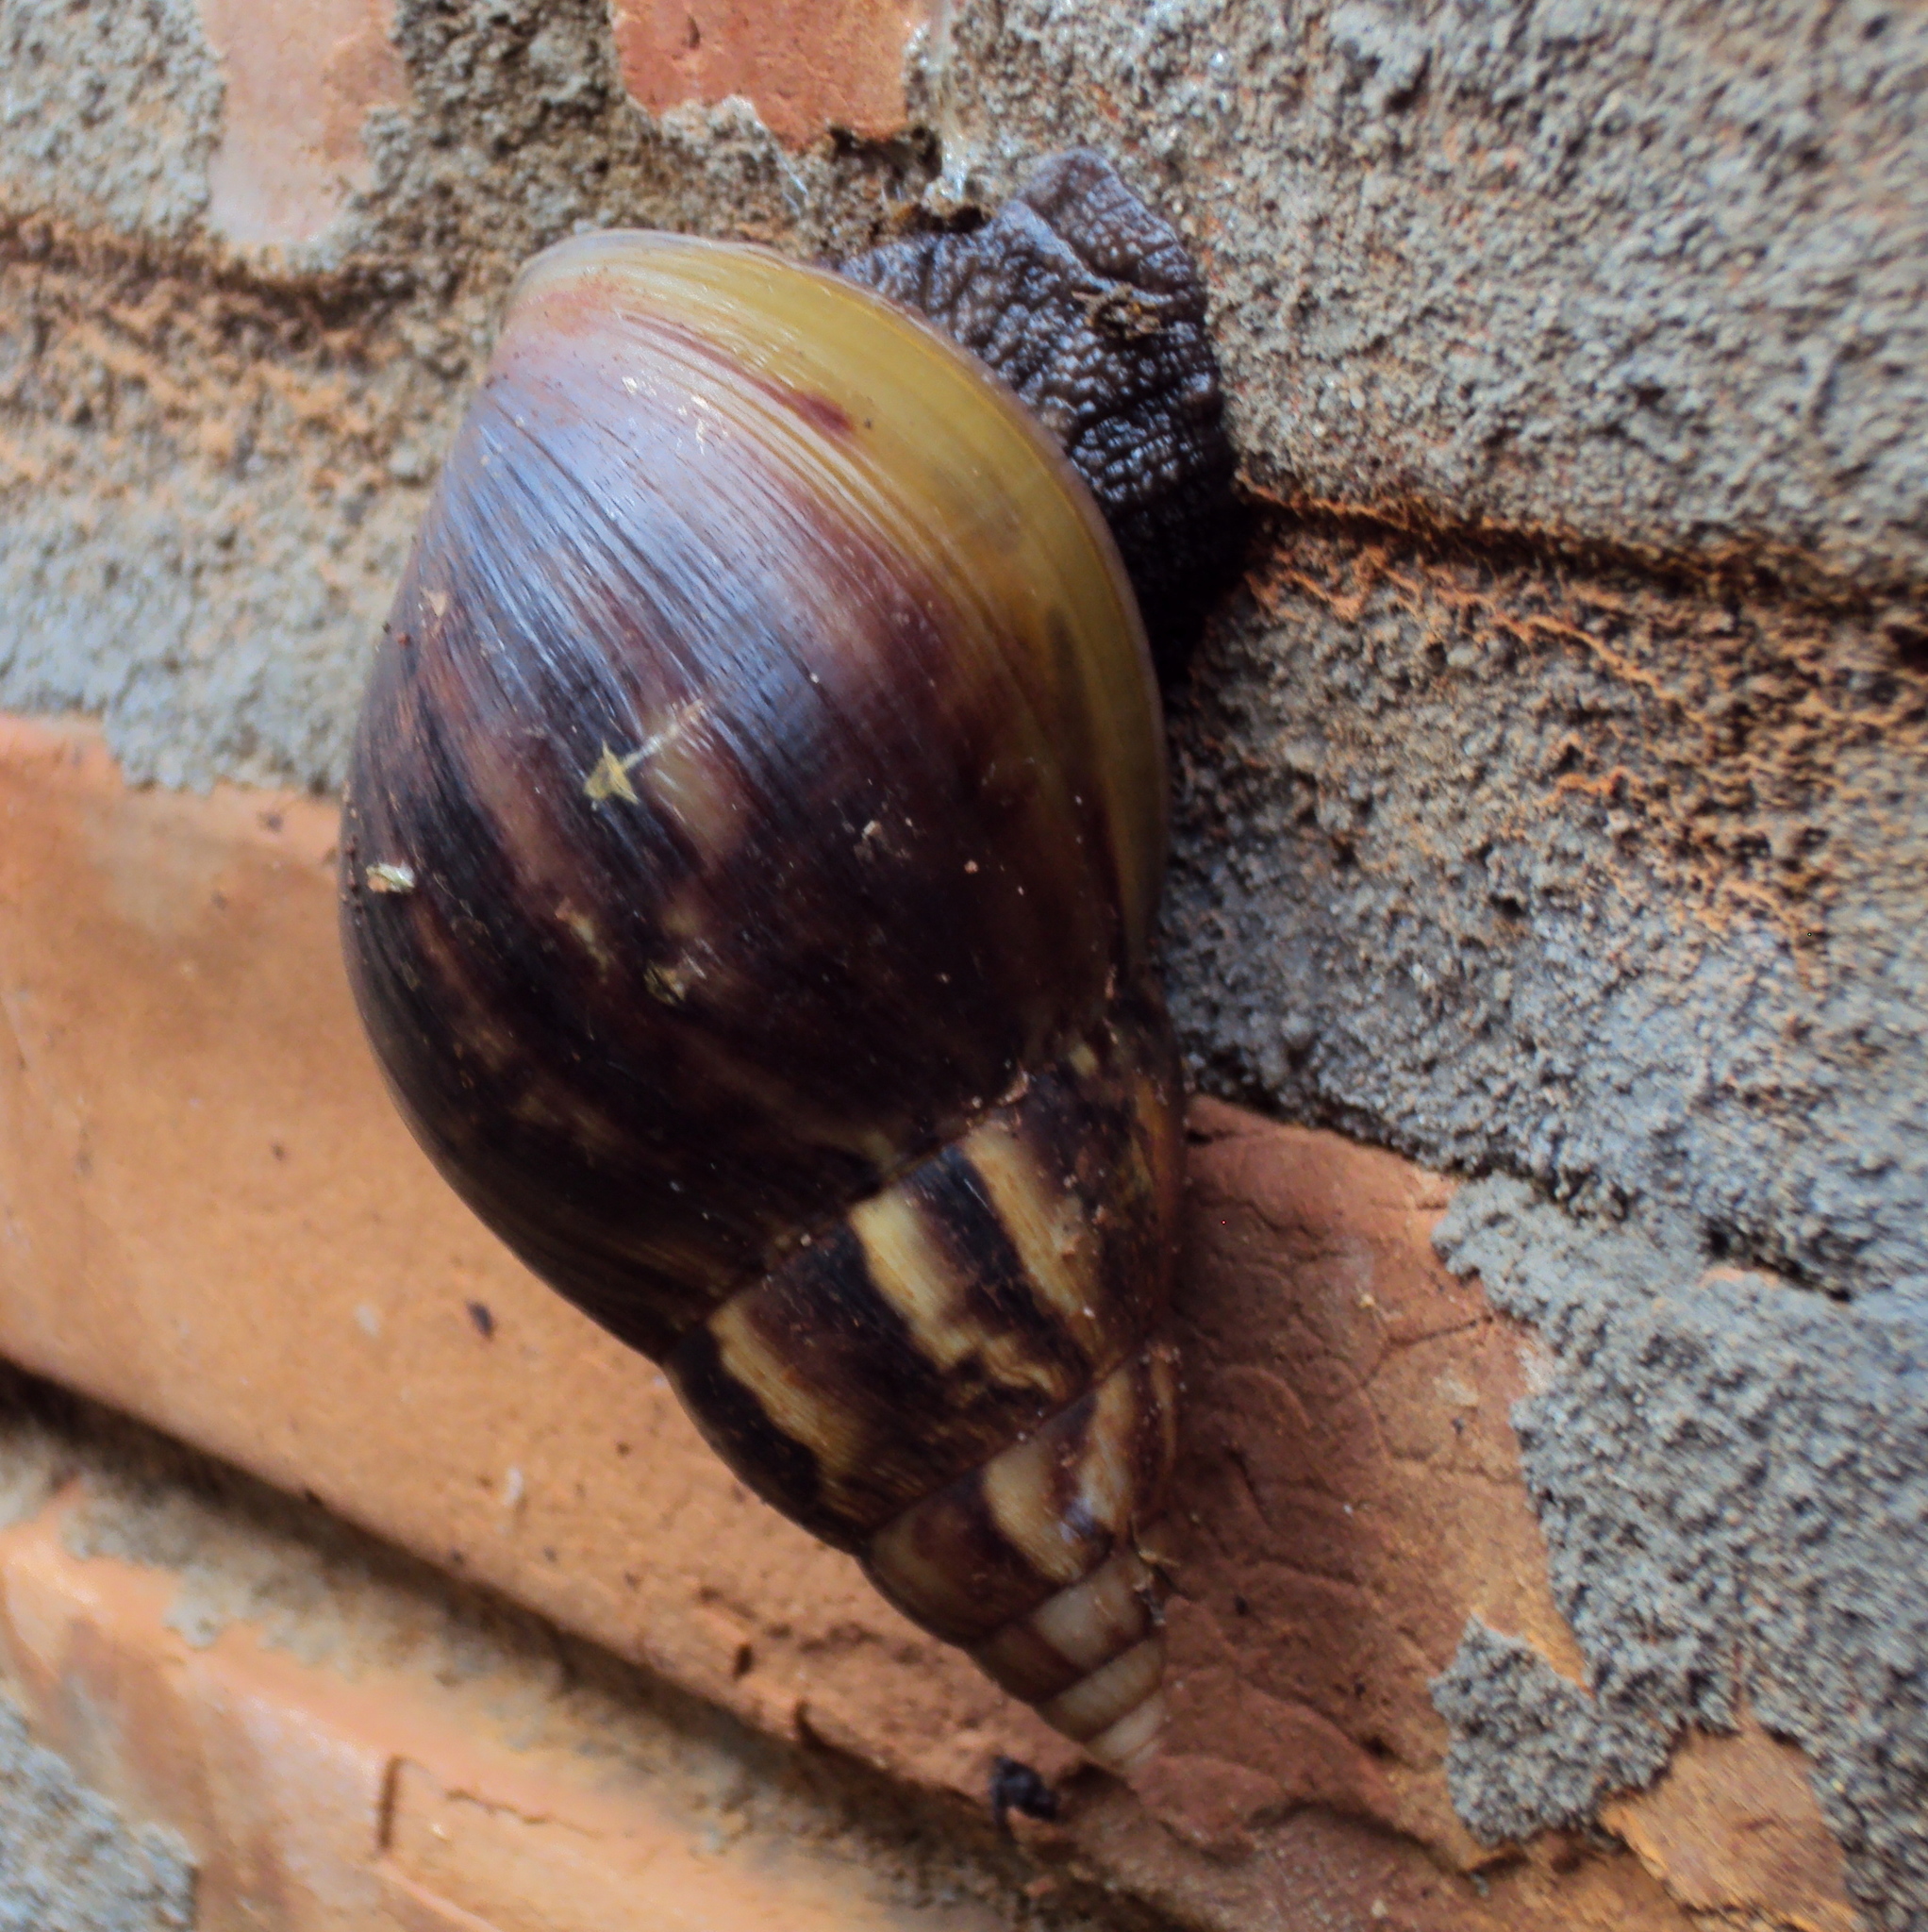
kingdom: Animalia
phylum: Mollusca
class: Gastropoda
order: Stylommatophora
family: Achatinidae
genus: Lissachatina
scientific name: Lissachatina fulica
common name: Giant african snail
